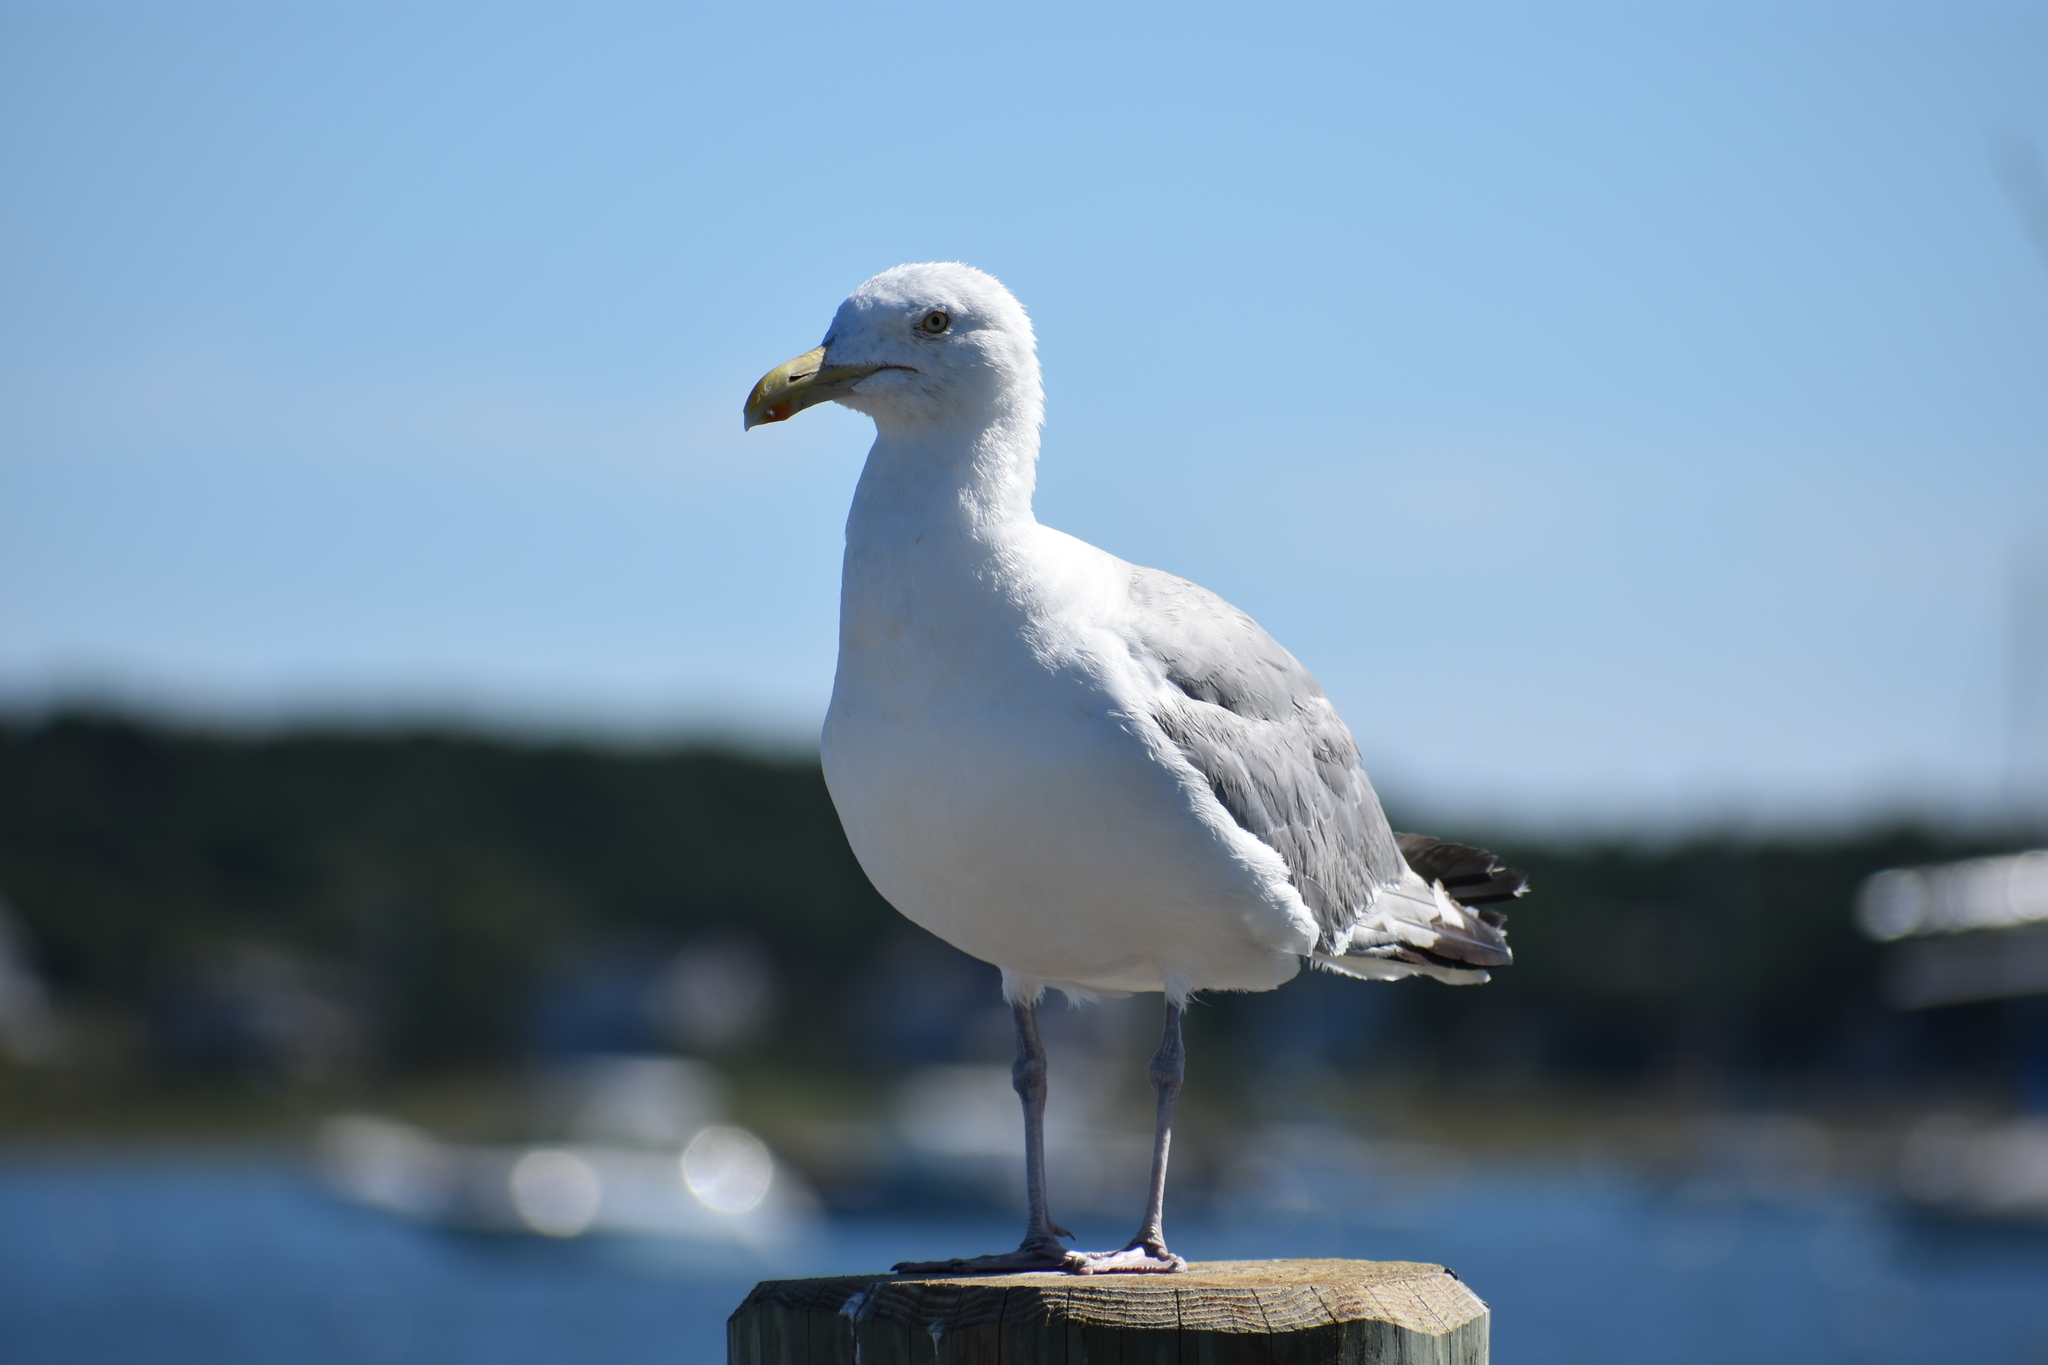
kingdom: Animalia
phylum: Chordata
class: Aves
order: Charadriiformes
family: Laridae
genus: Larus
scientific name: Larus argentatus
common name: Herring gull
